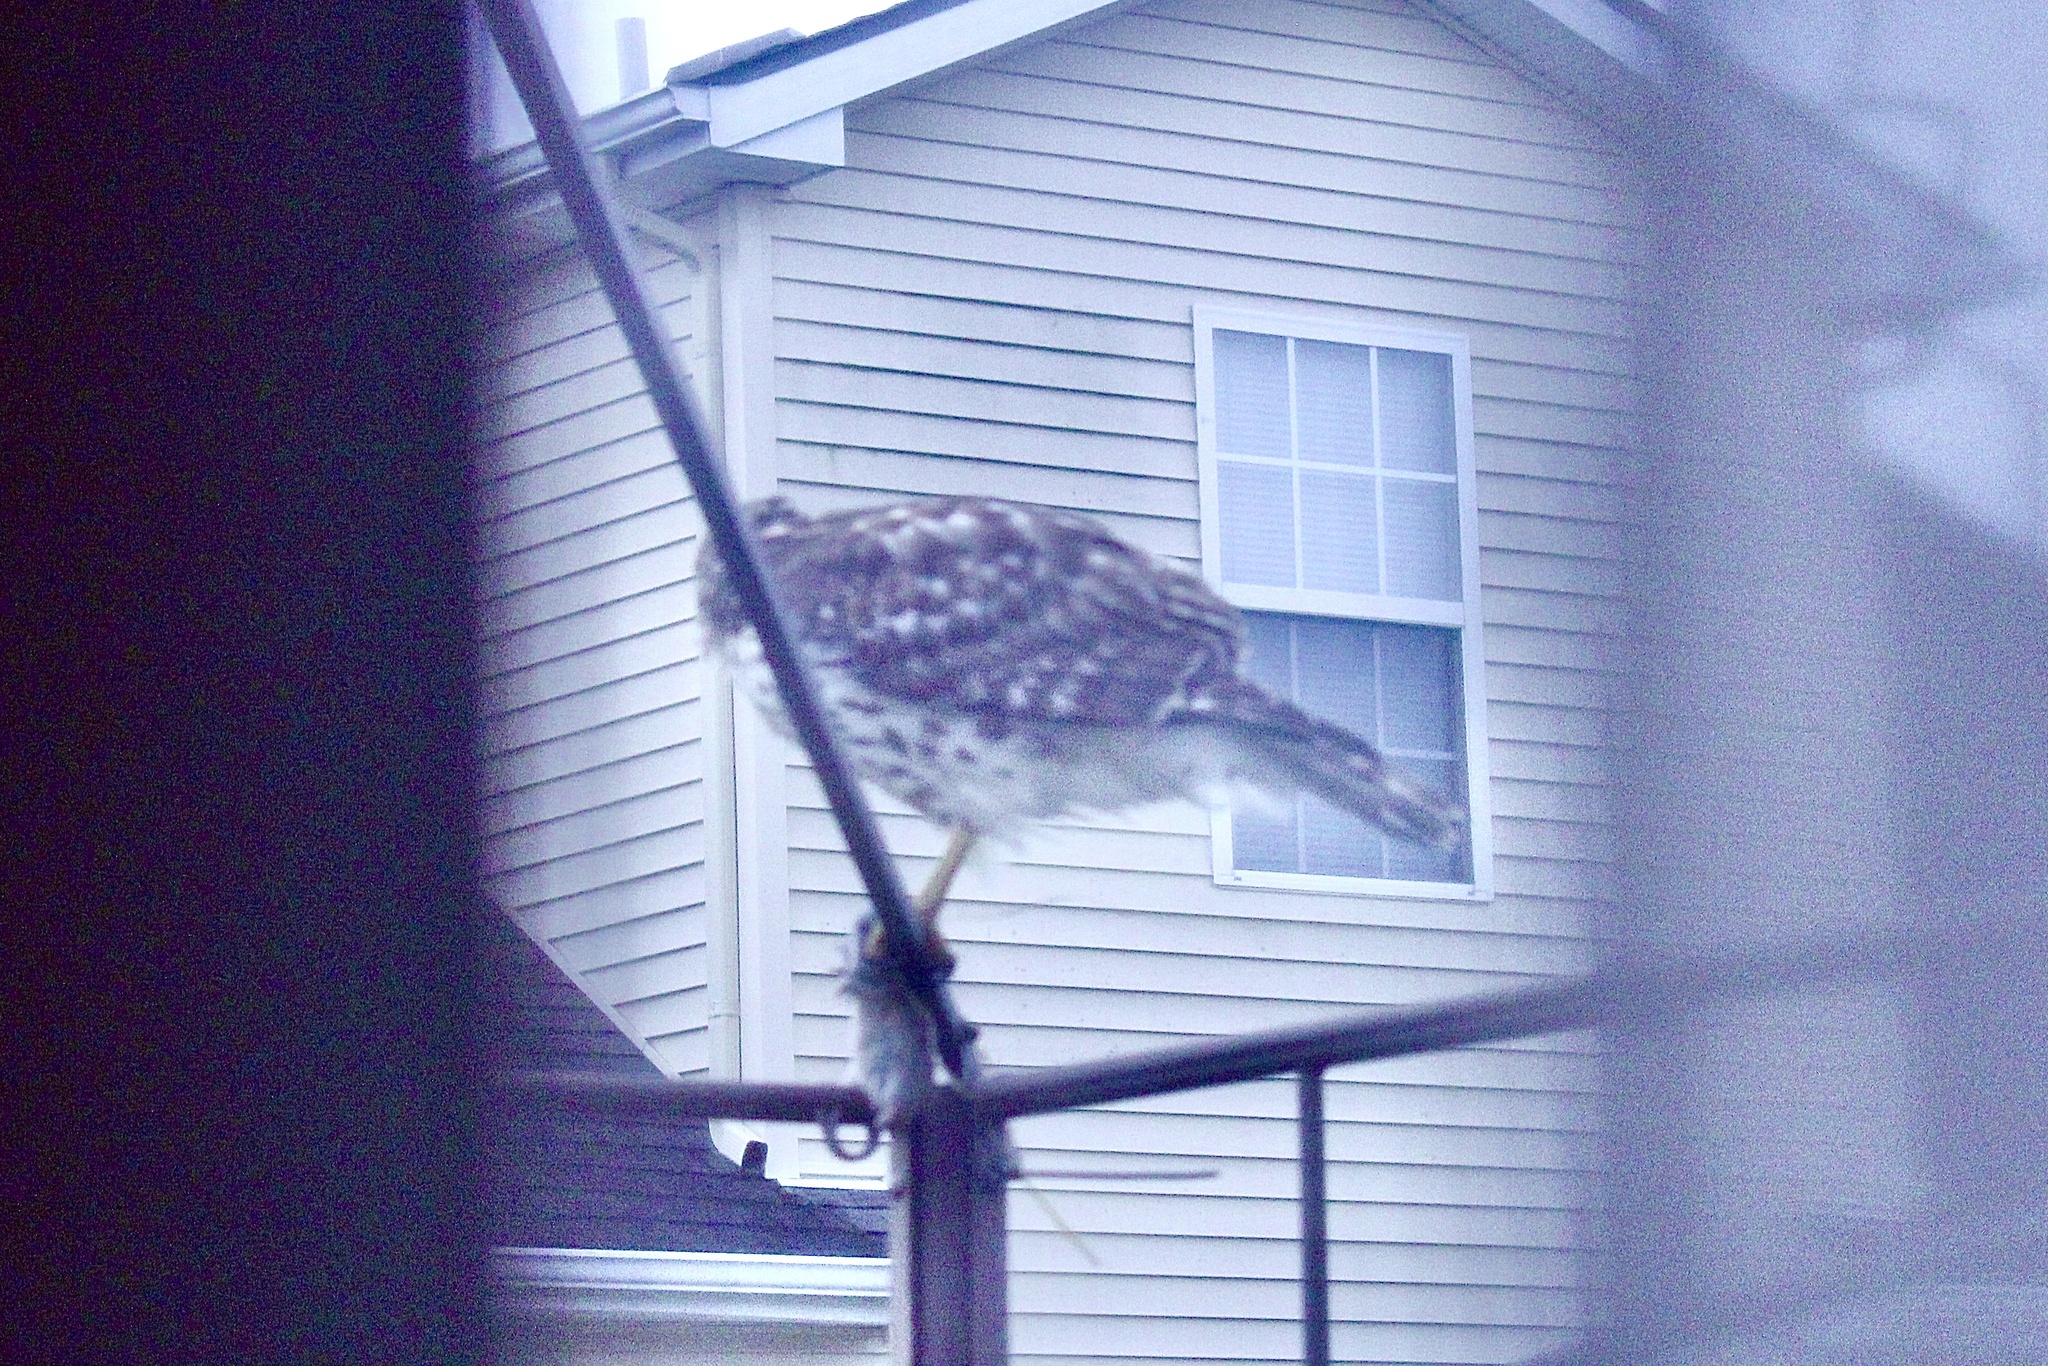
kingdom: Animalia
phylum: Chordata
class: Aves
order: Accipitriformes
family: Accipitridae
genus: Buteo
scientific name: Buteo lineatus
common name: Red-shouldered hawk
